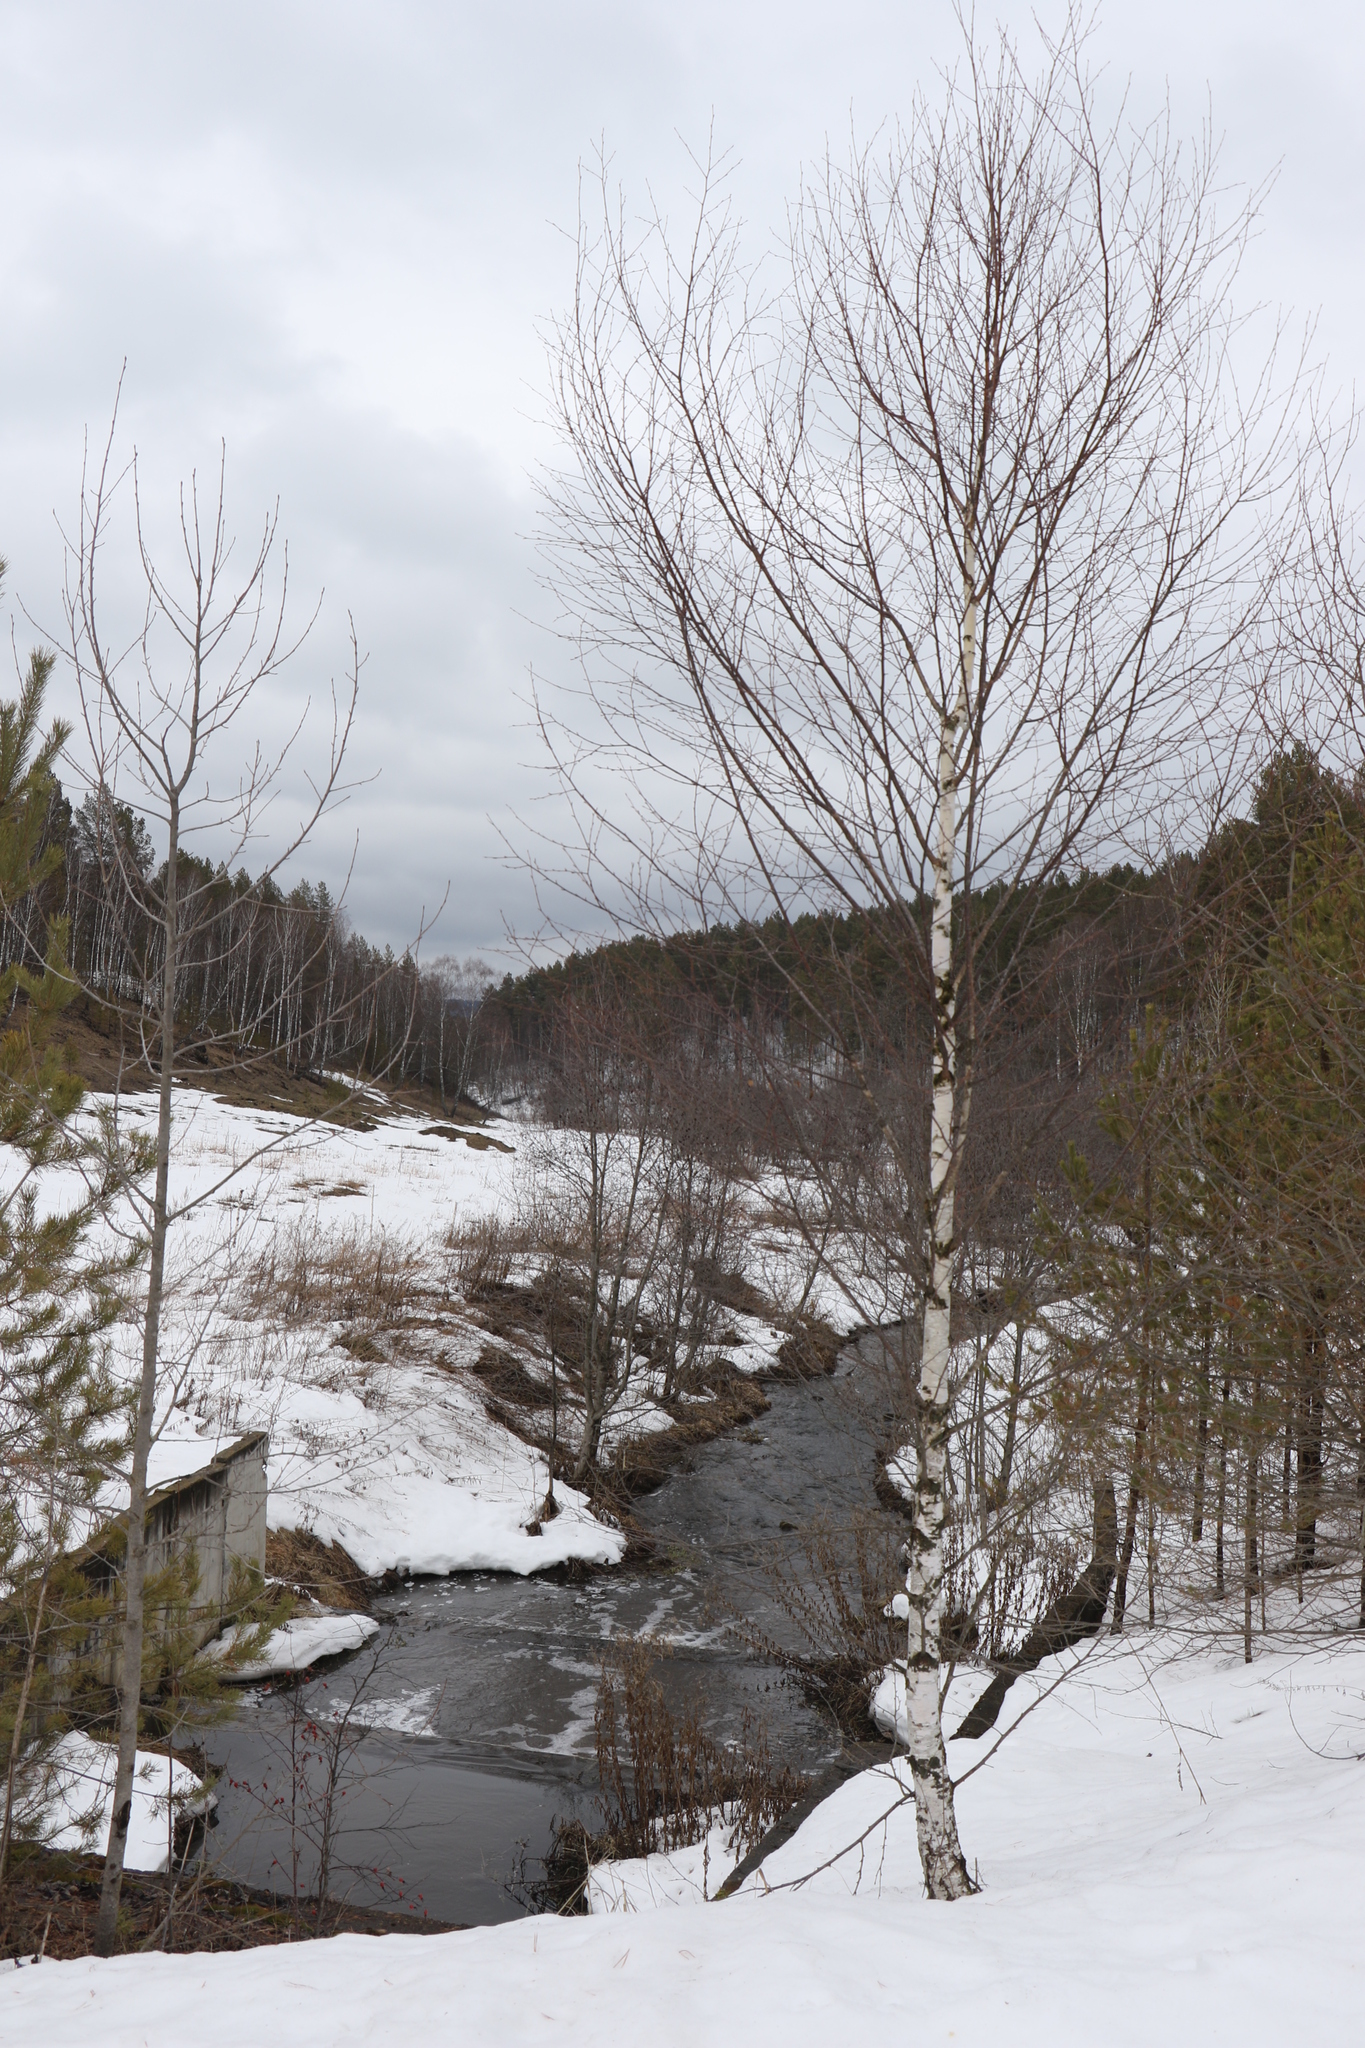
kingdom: Plantae
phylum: Tracheophyta
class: Magnoliopsida
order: Fagales
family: Betulaceae
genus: Betula
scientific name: Betula pendula
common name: Silver birch
